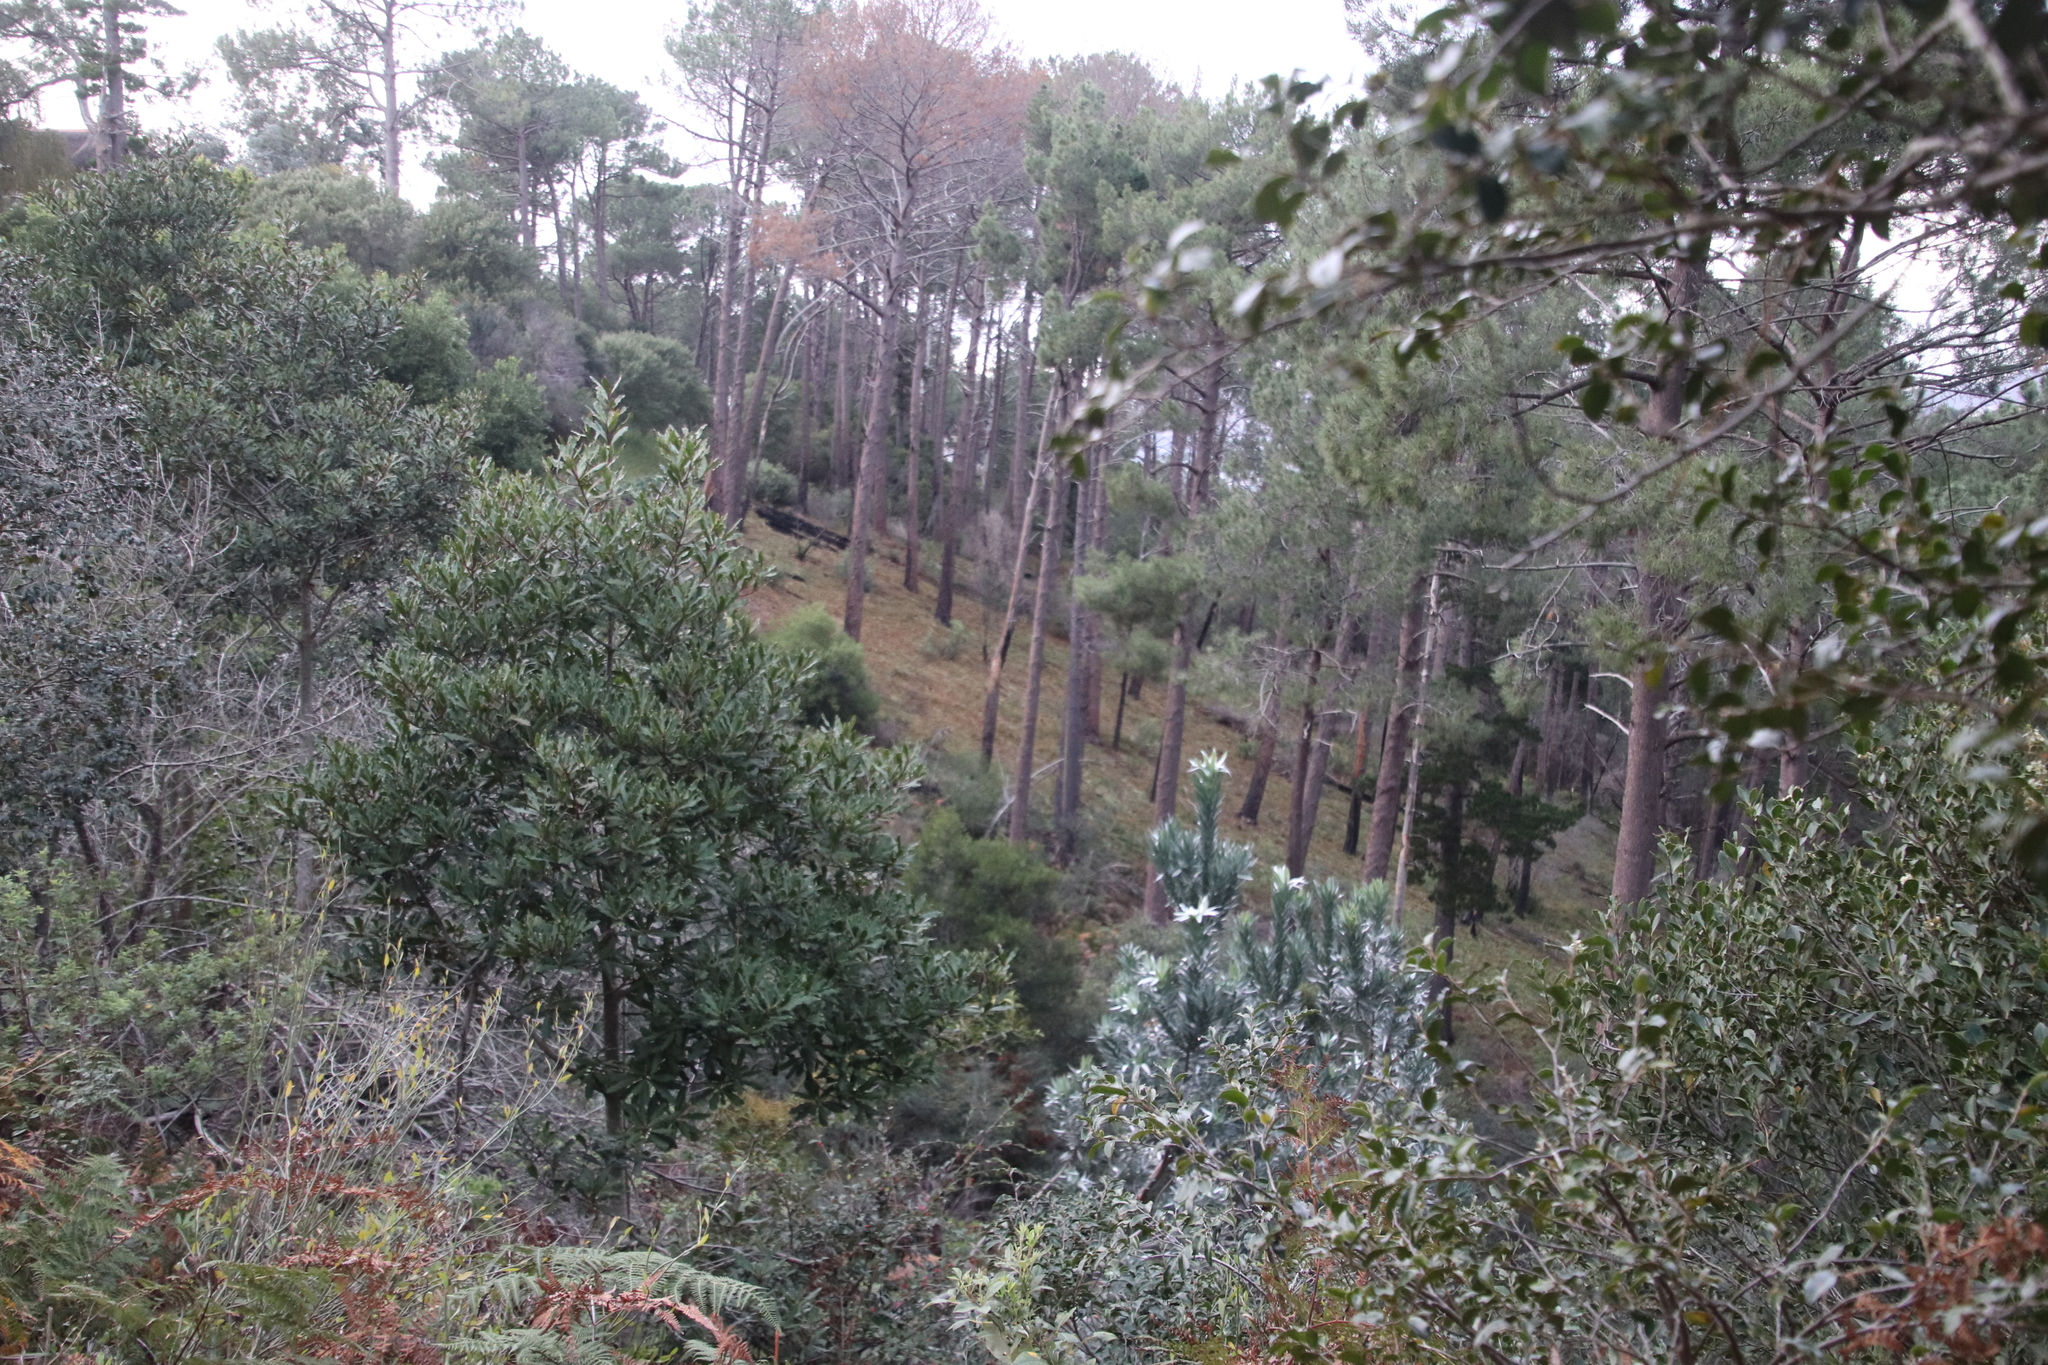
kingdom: Plantae
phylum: Tracheophyta
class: Pinopsida
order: Pinales
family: Pinaceae
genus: Pinus
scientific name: Pinus pinaster
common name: Maritime pine
